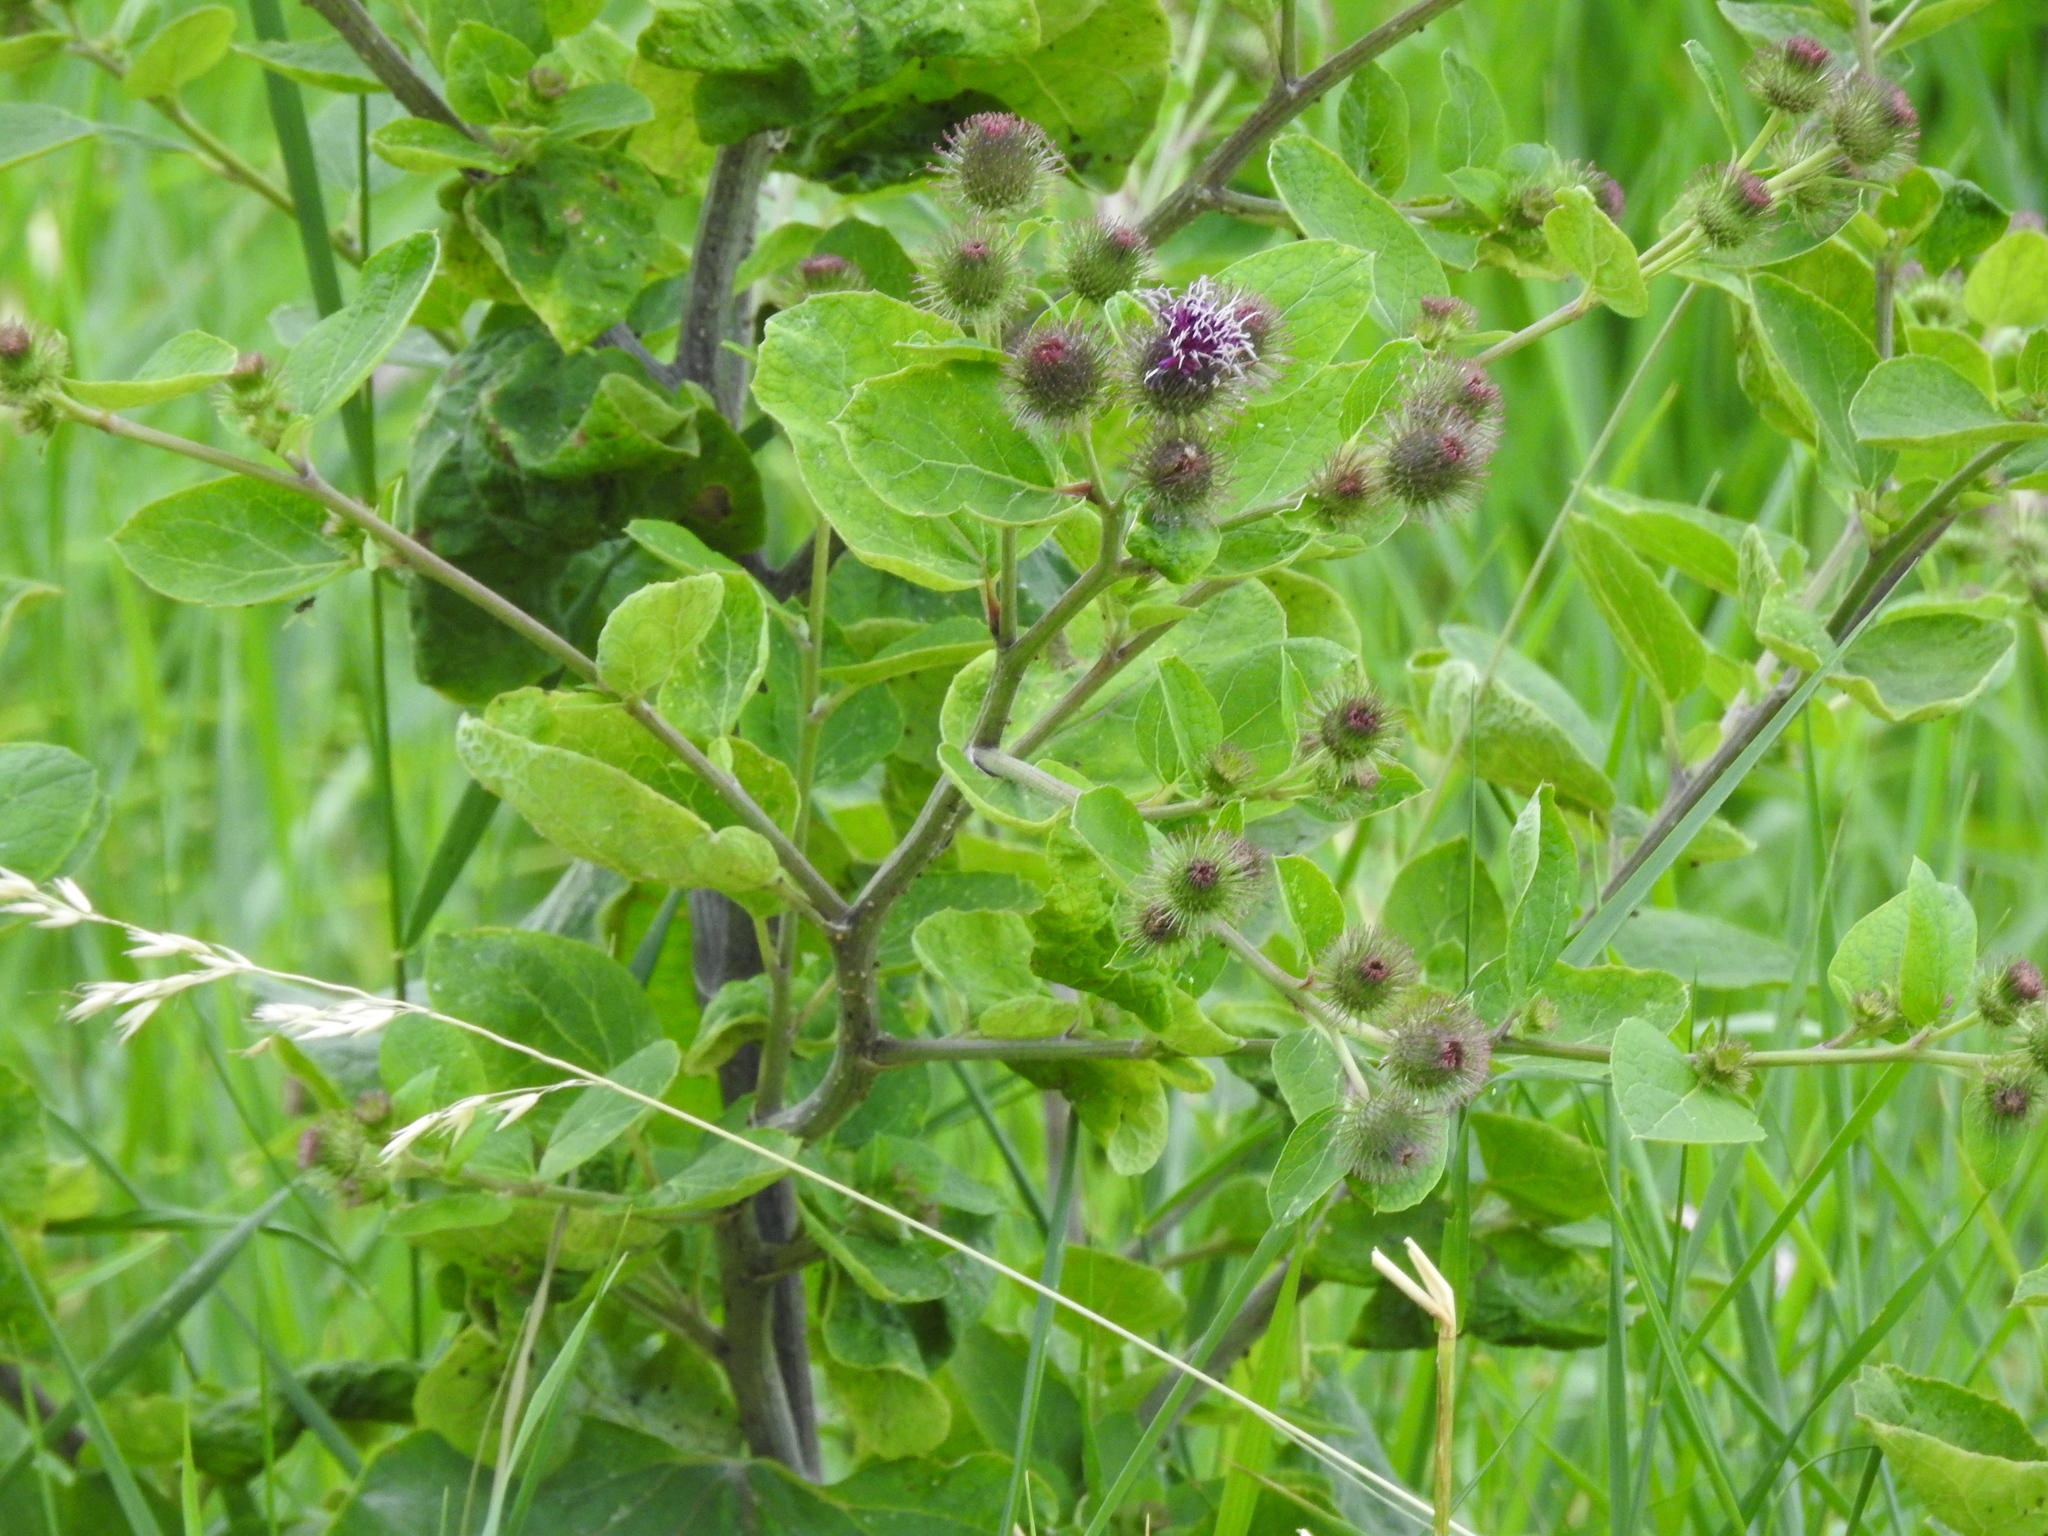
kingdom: Plantae
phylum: Tracheophyta
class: Magnoliopsida
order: Asterales
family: Asteraceae
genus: Arctium
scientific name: Arctium minus
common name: Lesser burdock
